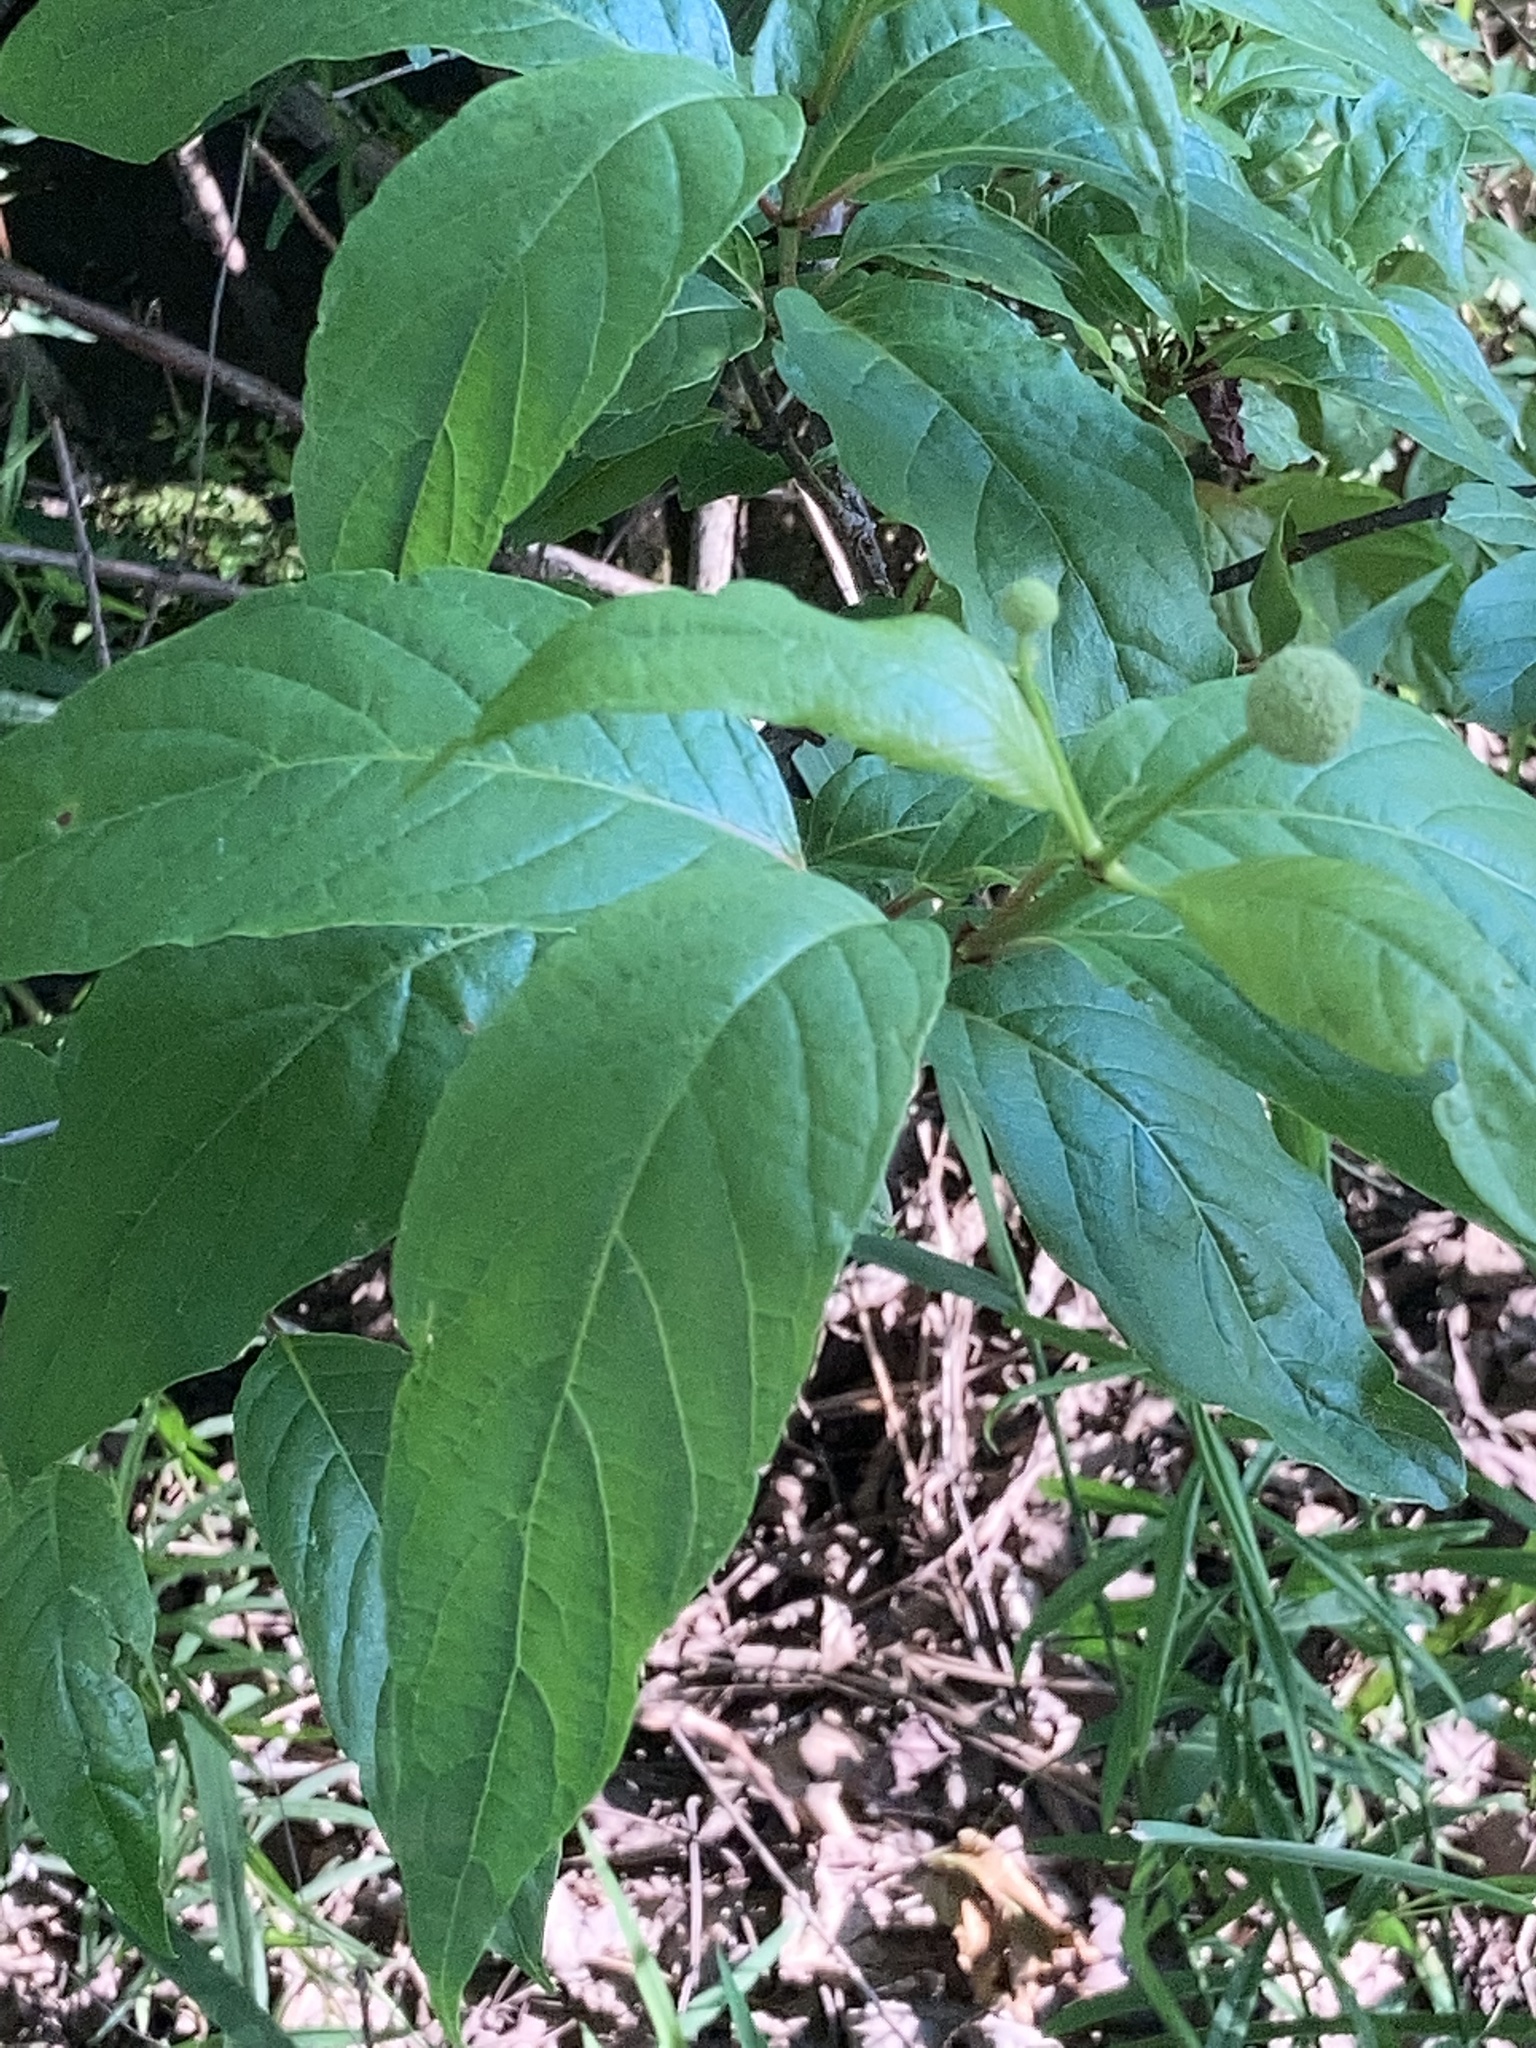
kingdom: Plantae
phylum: Tracheophyta
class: Magnoliopsida
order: Gentianales
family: Rubiaceae
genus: Cephalanthus
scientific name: Cephalanthus occidentalis
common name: Button-willow
